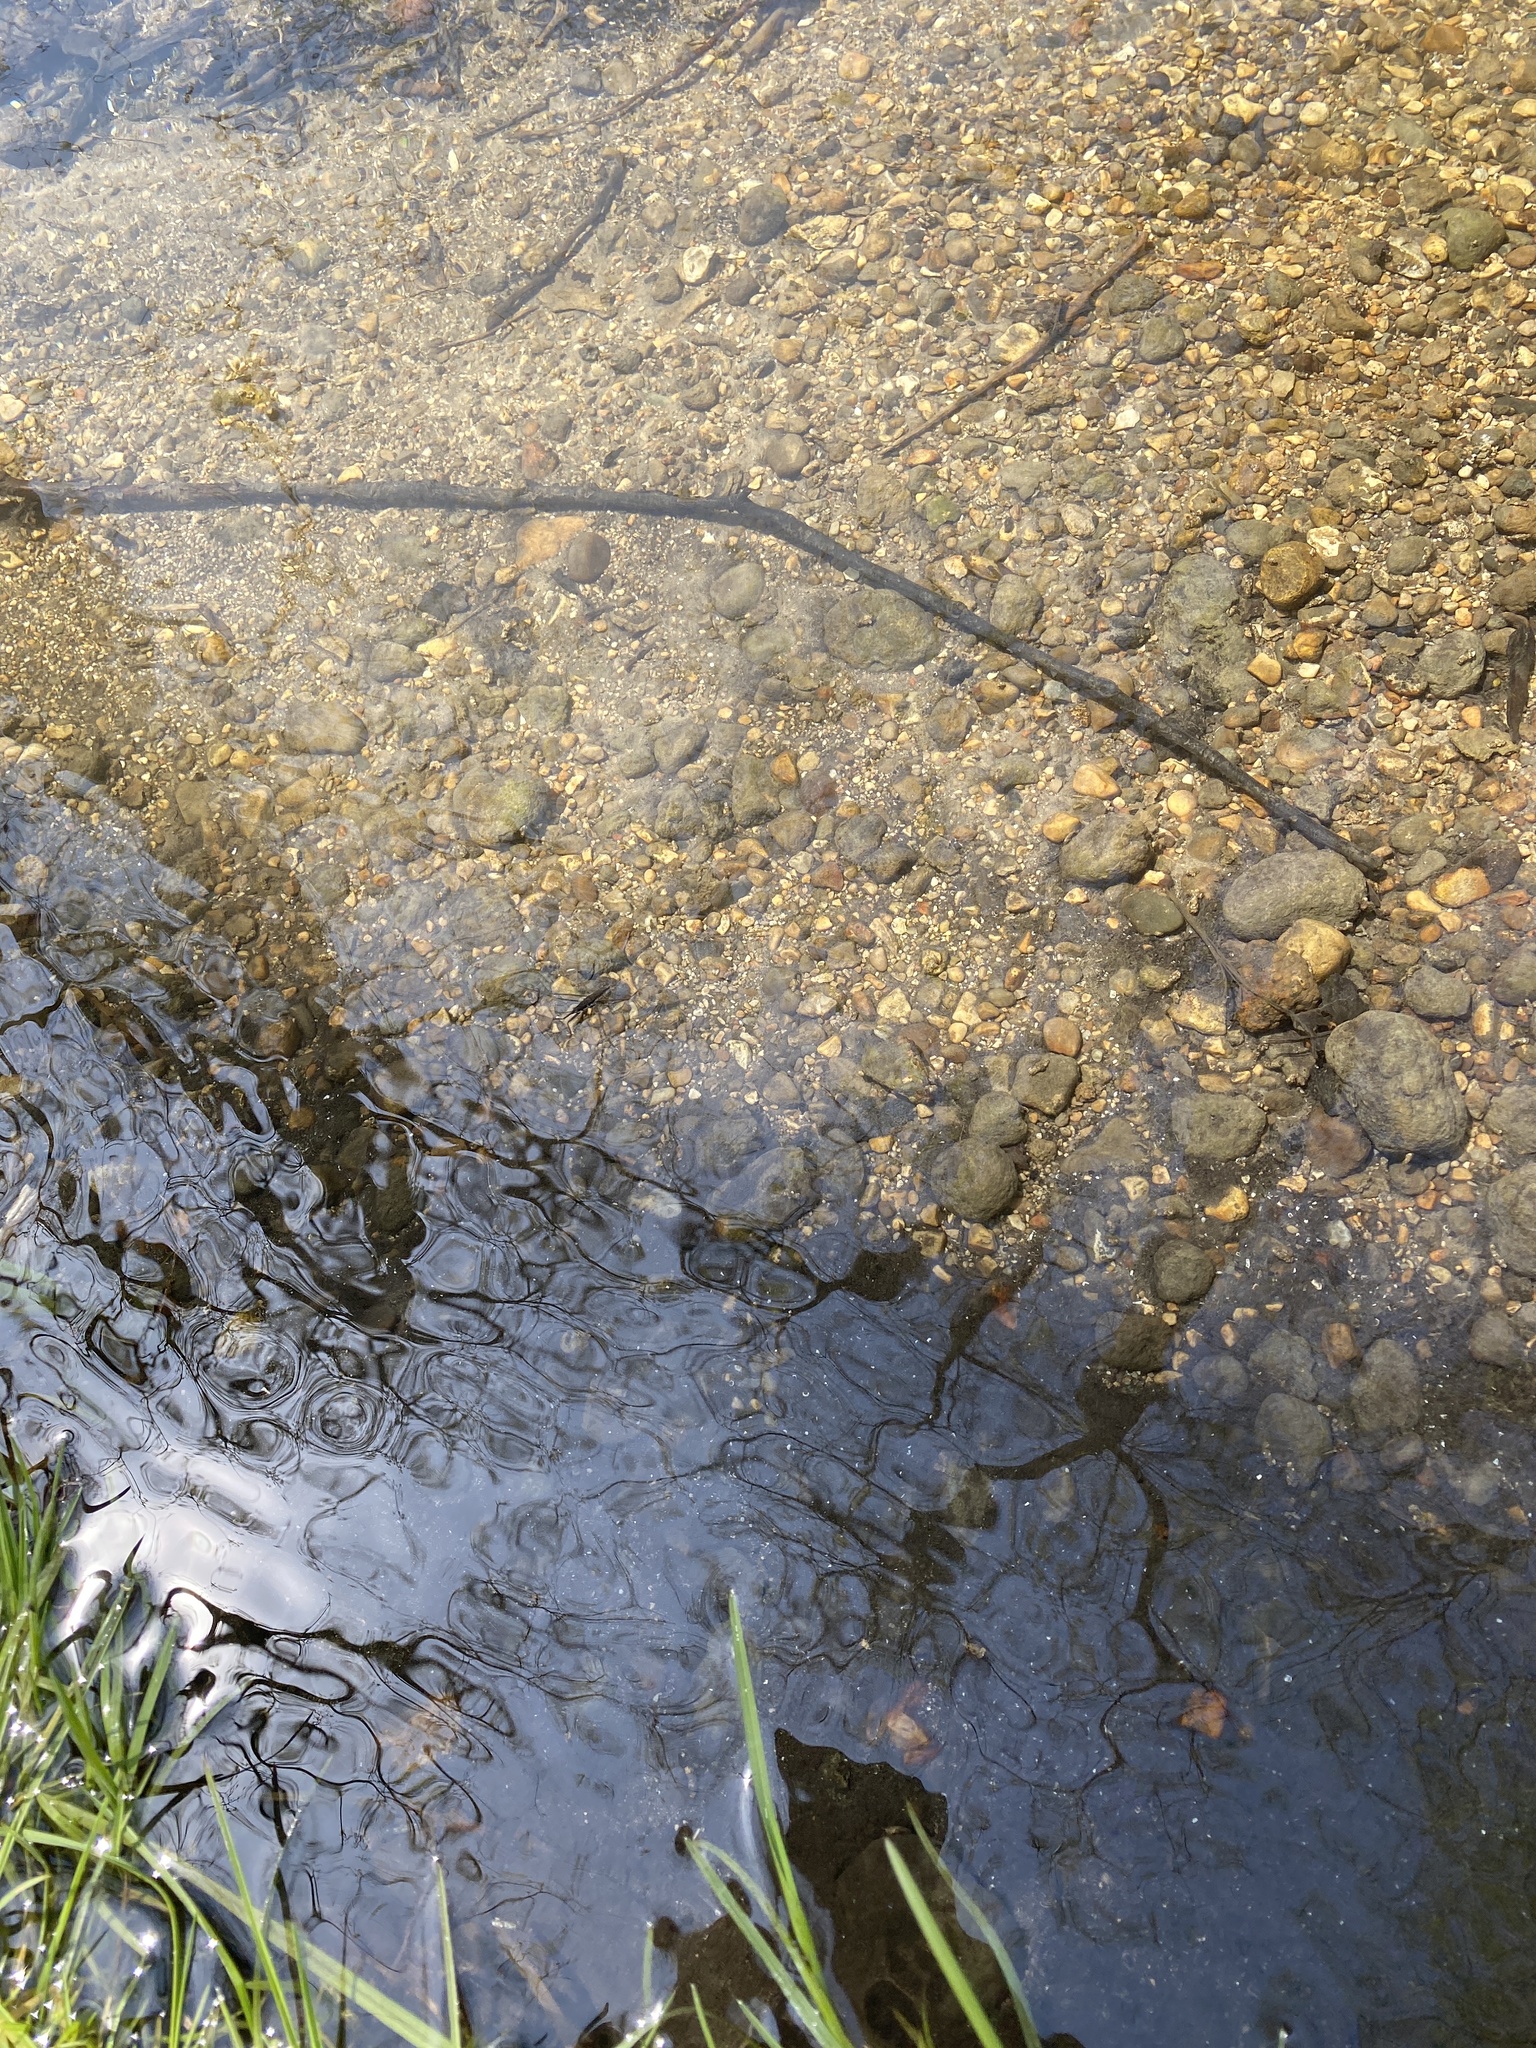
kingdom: Animalia
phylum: Arthropoda
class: Insecta
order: Hemiptera
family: Gerridae
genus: Aquarius
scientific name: Aquarius
